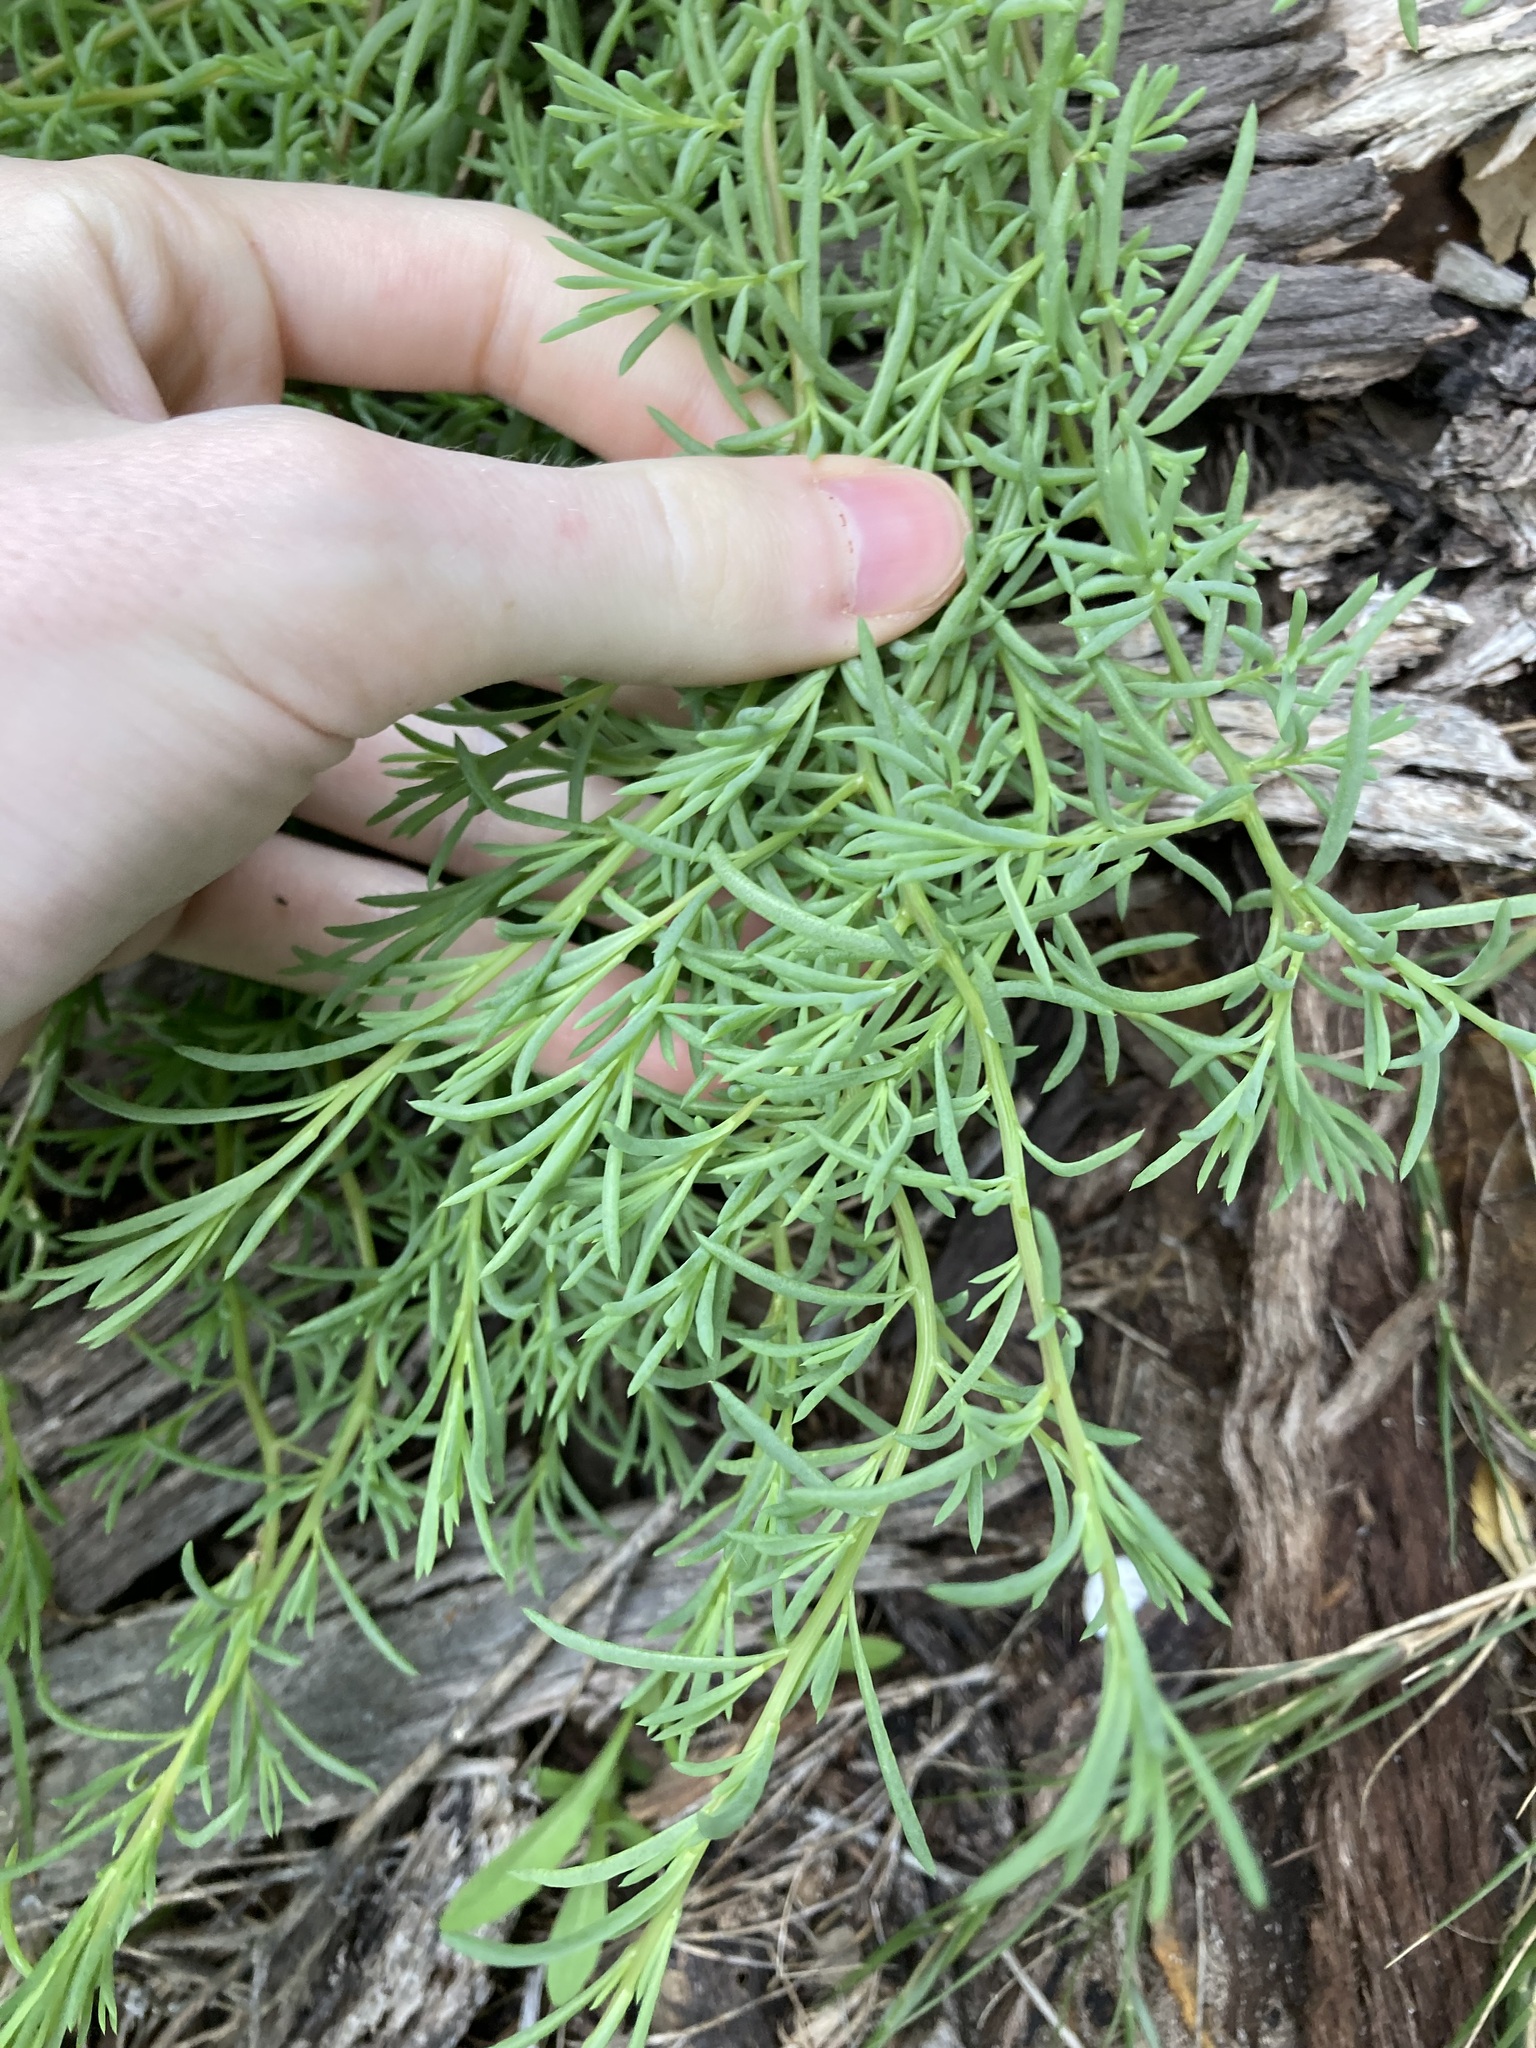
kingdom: Plantae
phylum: Tracheophyta
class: Magnoliopsida
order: Caryophyllales
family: Amaranthaceae
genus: Suaeda
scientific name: Suaeda australis
